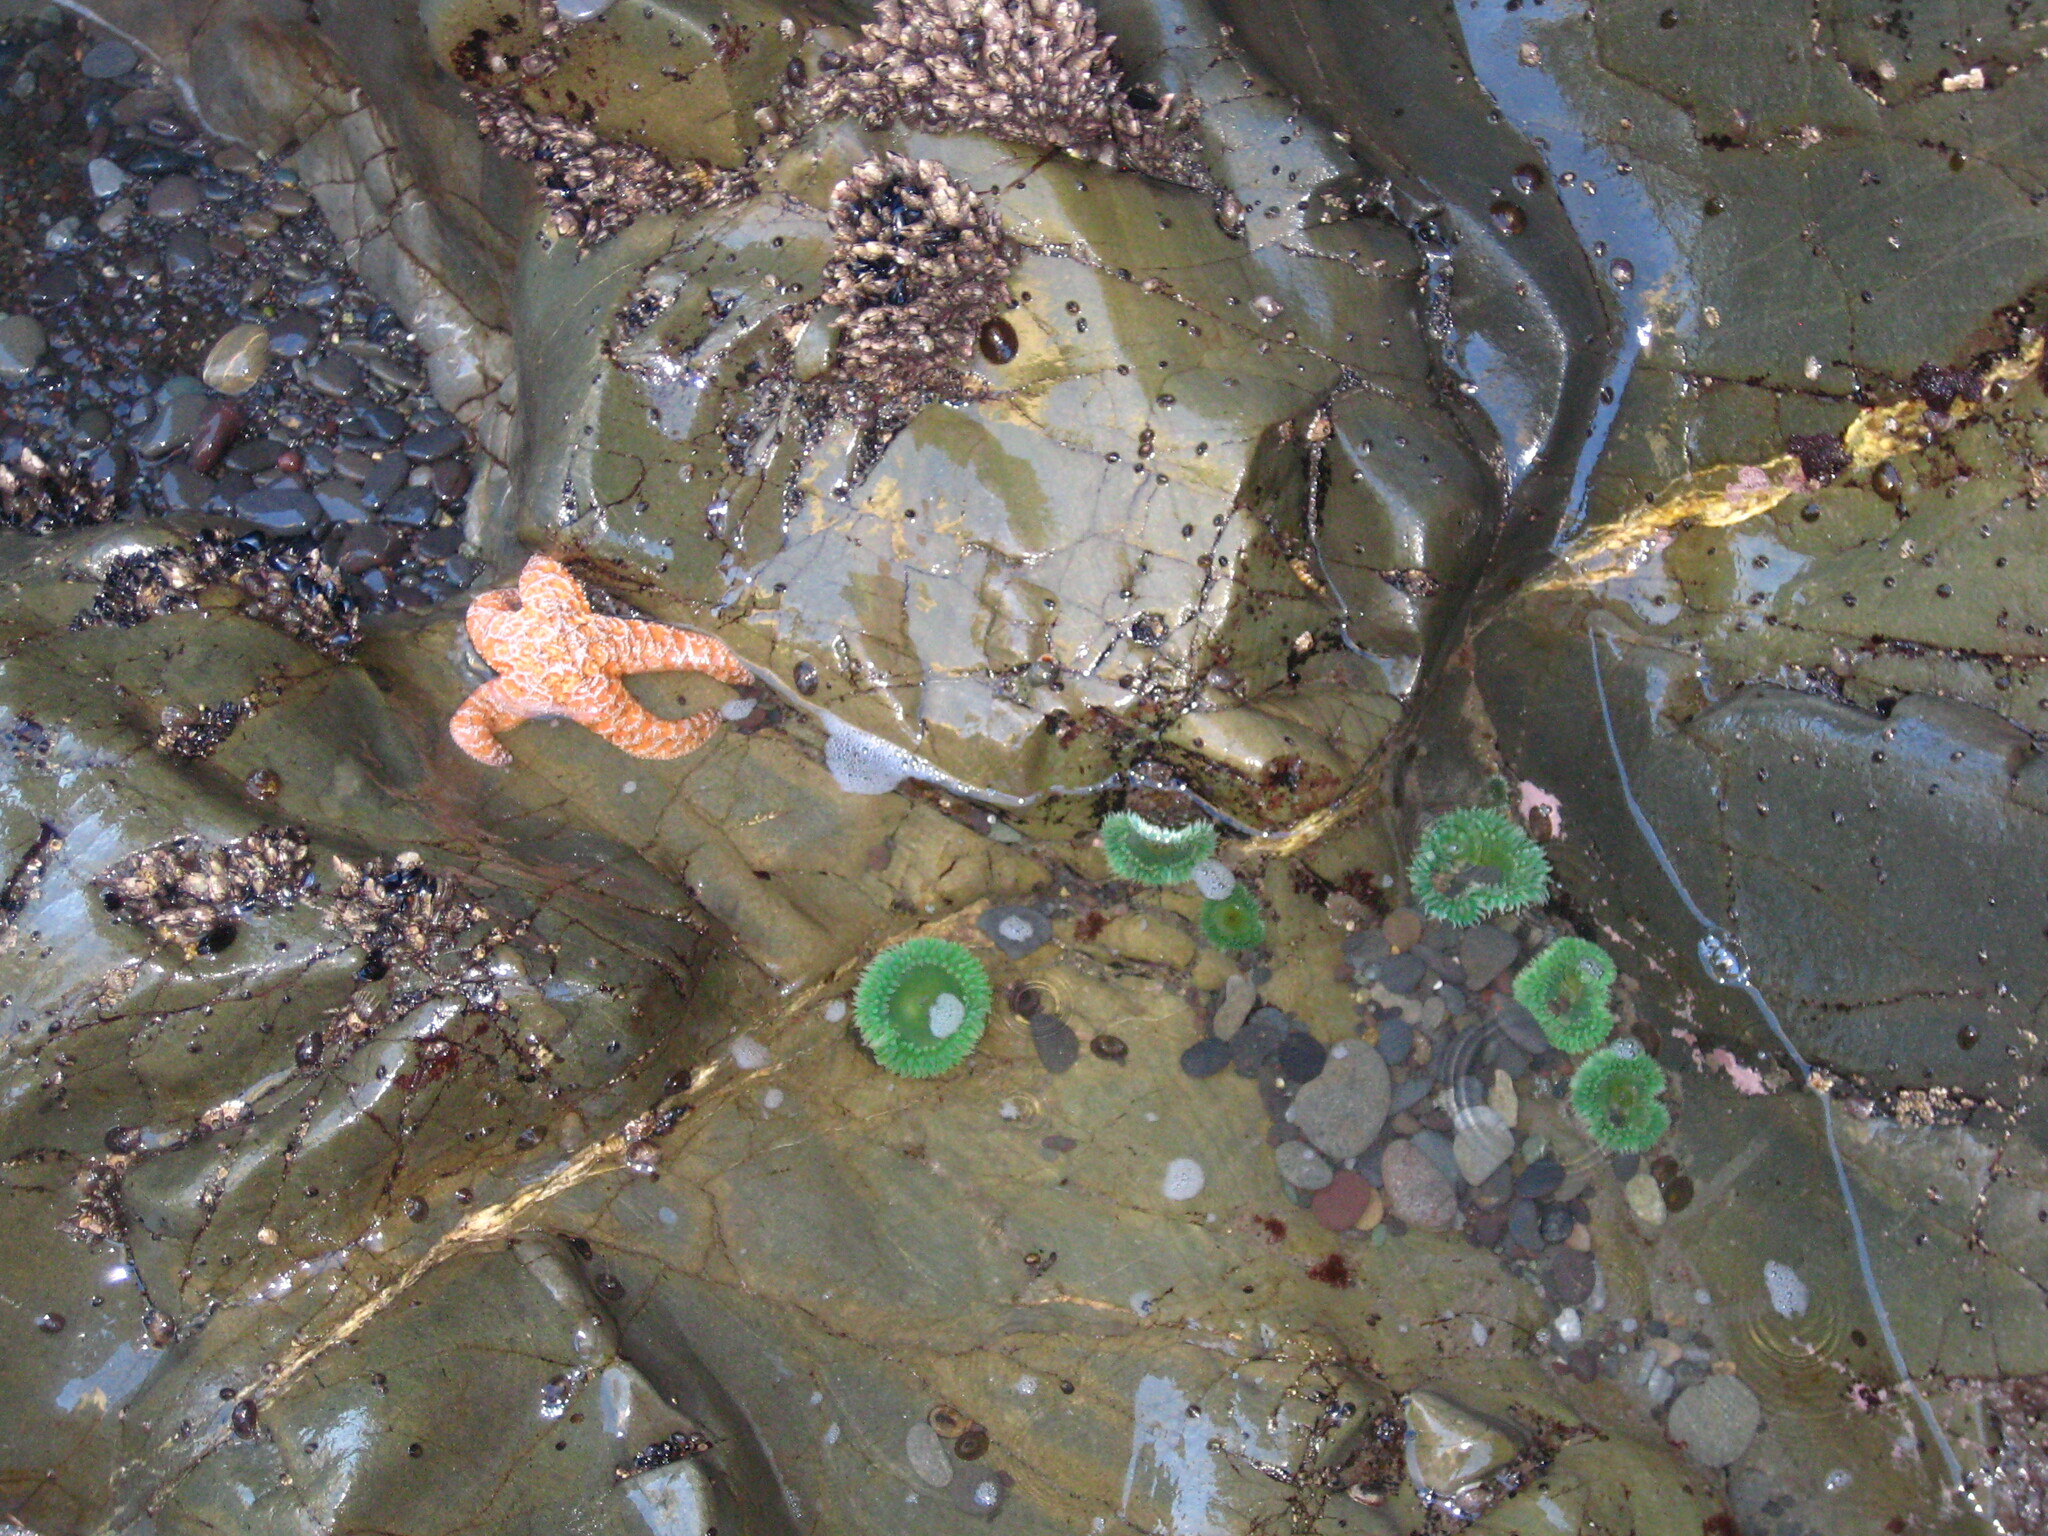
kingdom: Animalia
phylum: Cnidaria
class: Anthozoa
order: Actiniaria
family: Actiniidae
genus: Anthopleura
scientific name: Anthopleura xanthogrammica
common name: Giant green anemone
